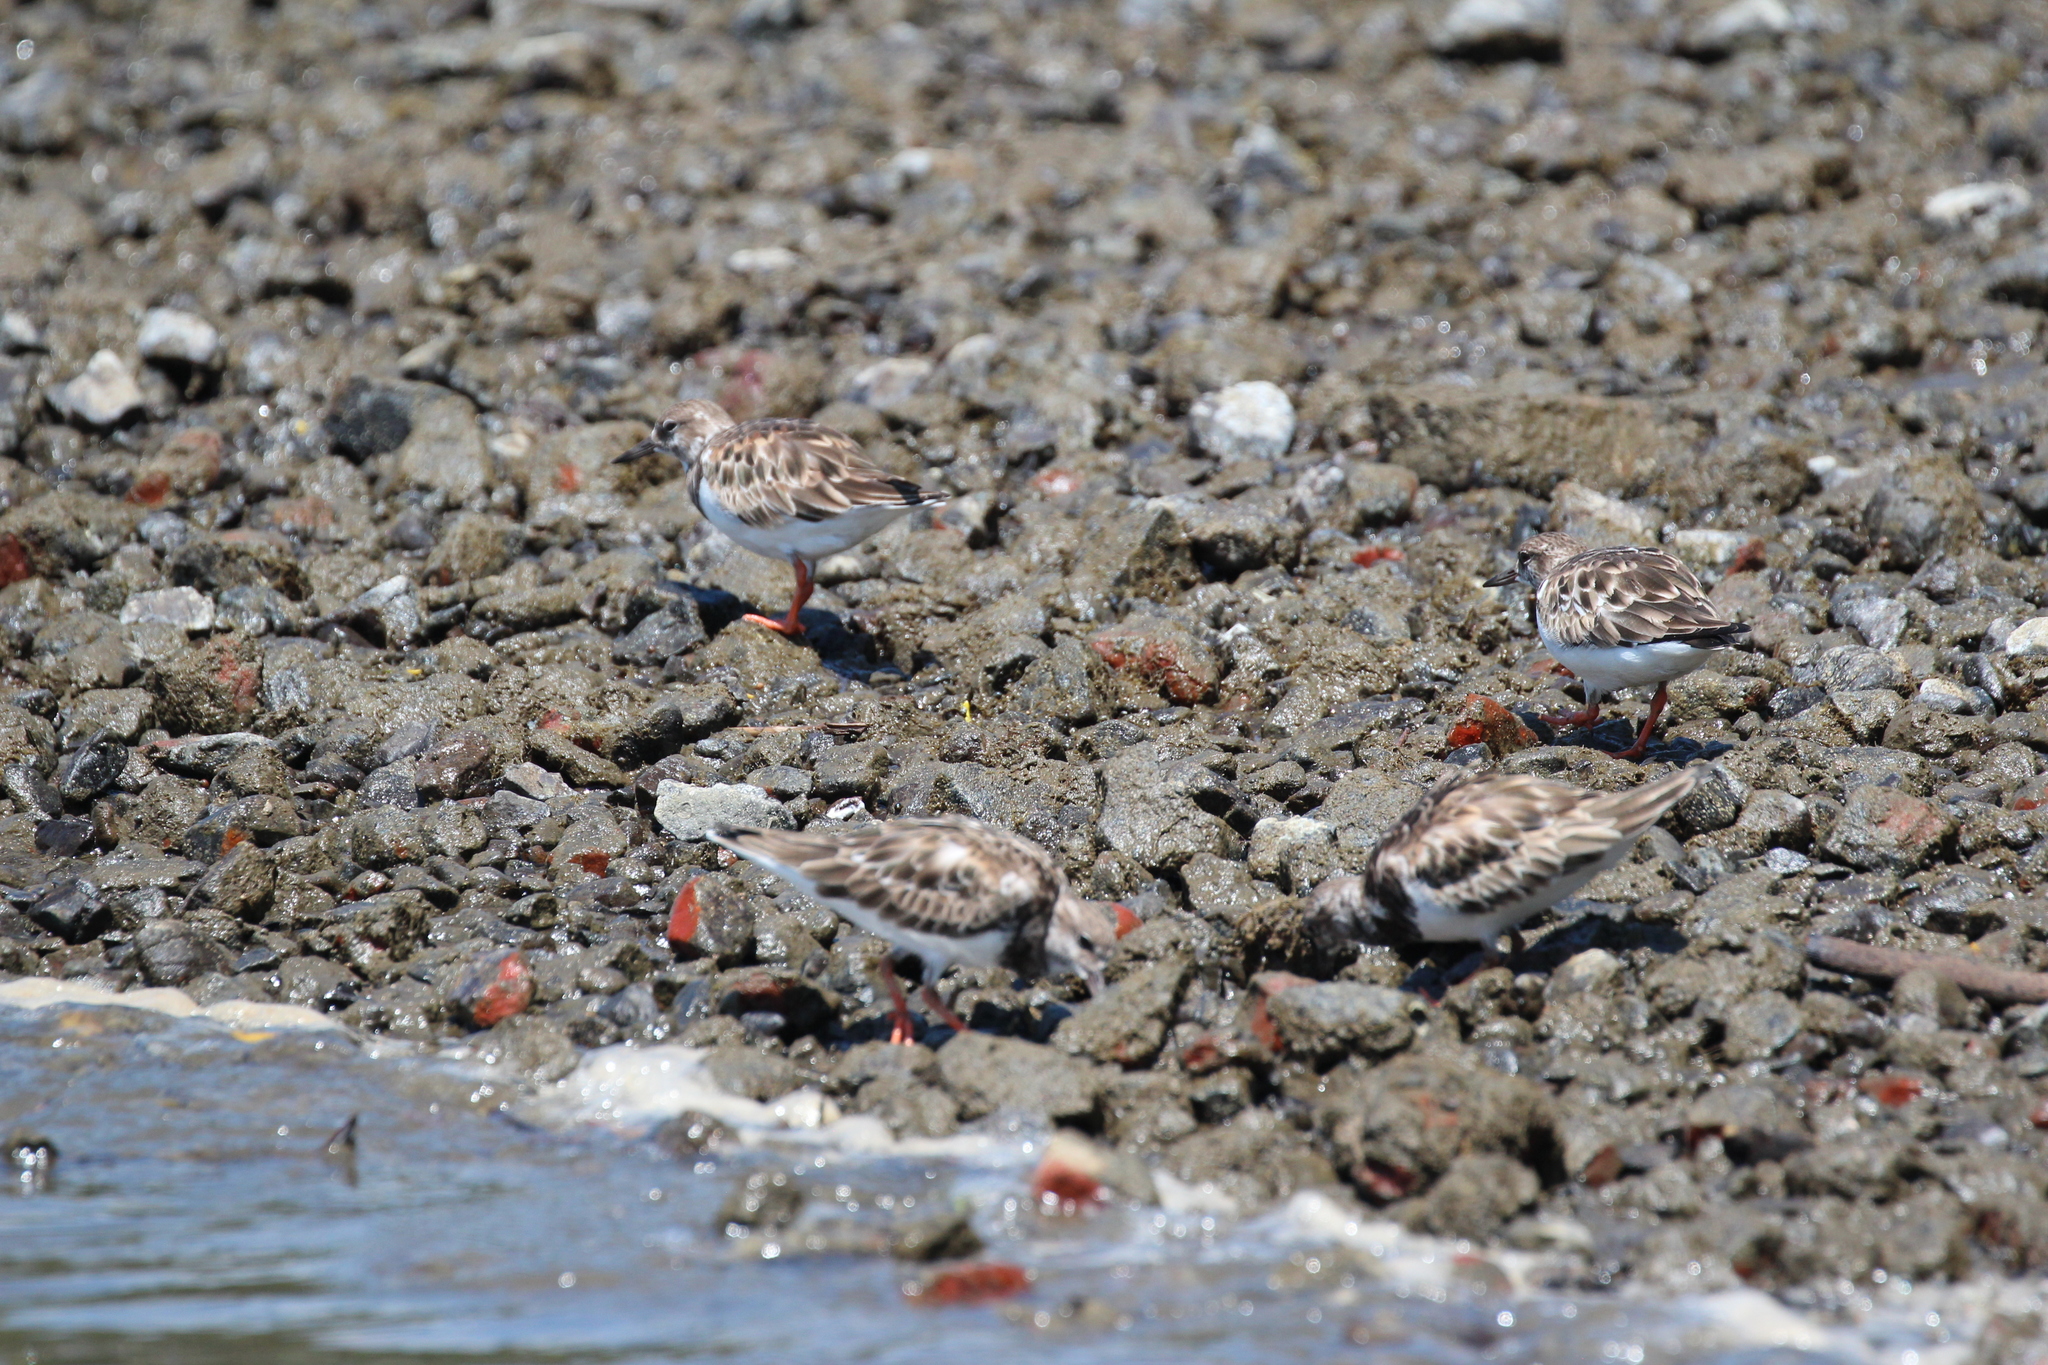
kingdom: Animalia
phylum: Chordata
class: Aves
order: Charadriiformes
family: Scolopacidae
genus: Arenaria
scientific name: Arenaria interpres
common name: Ruddy turnstone
